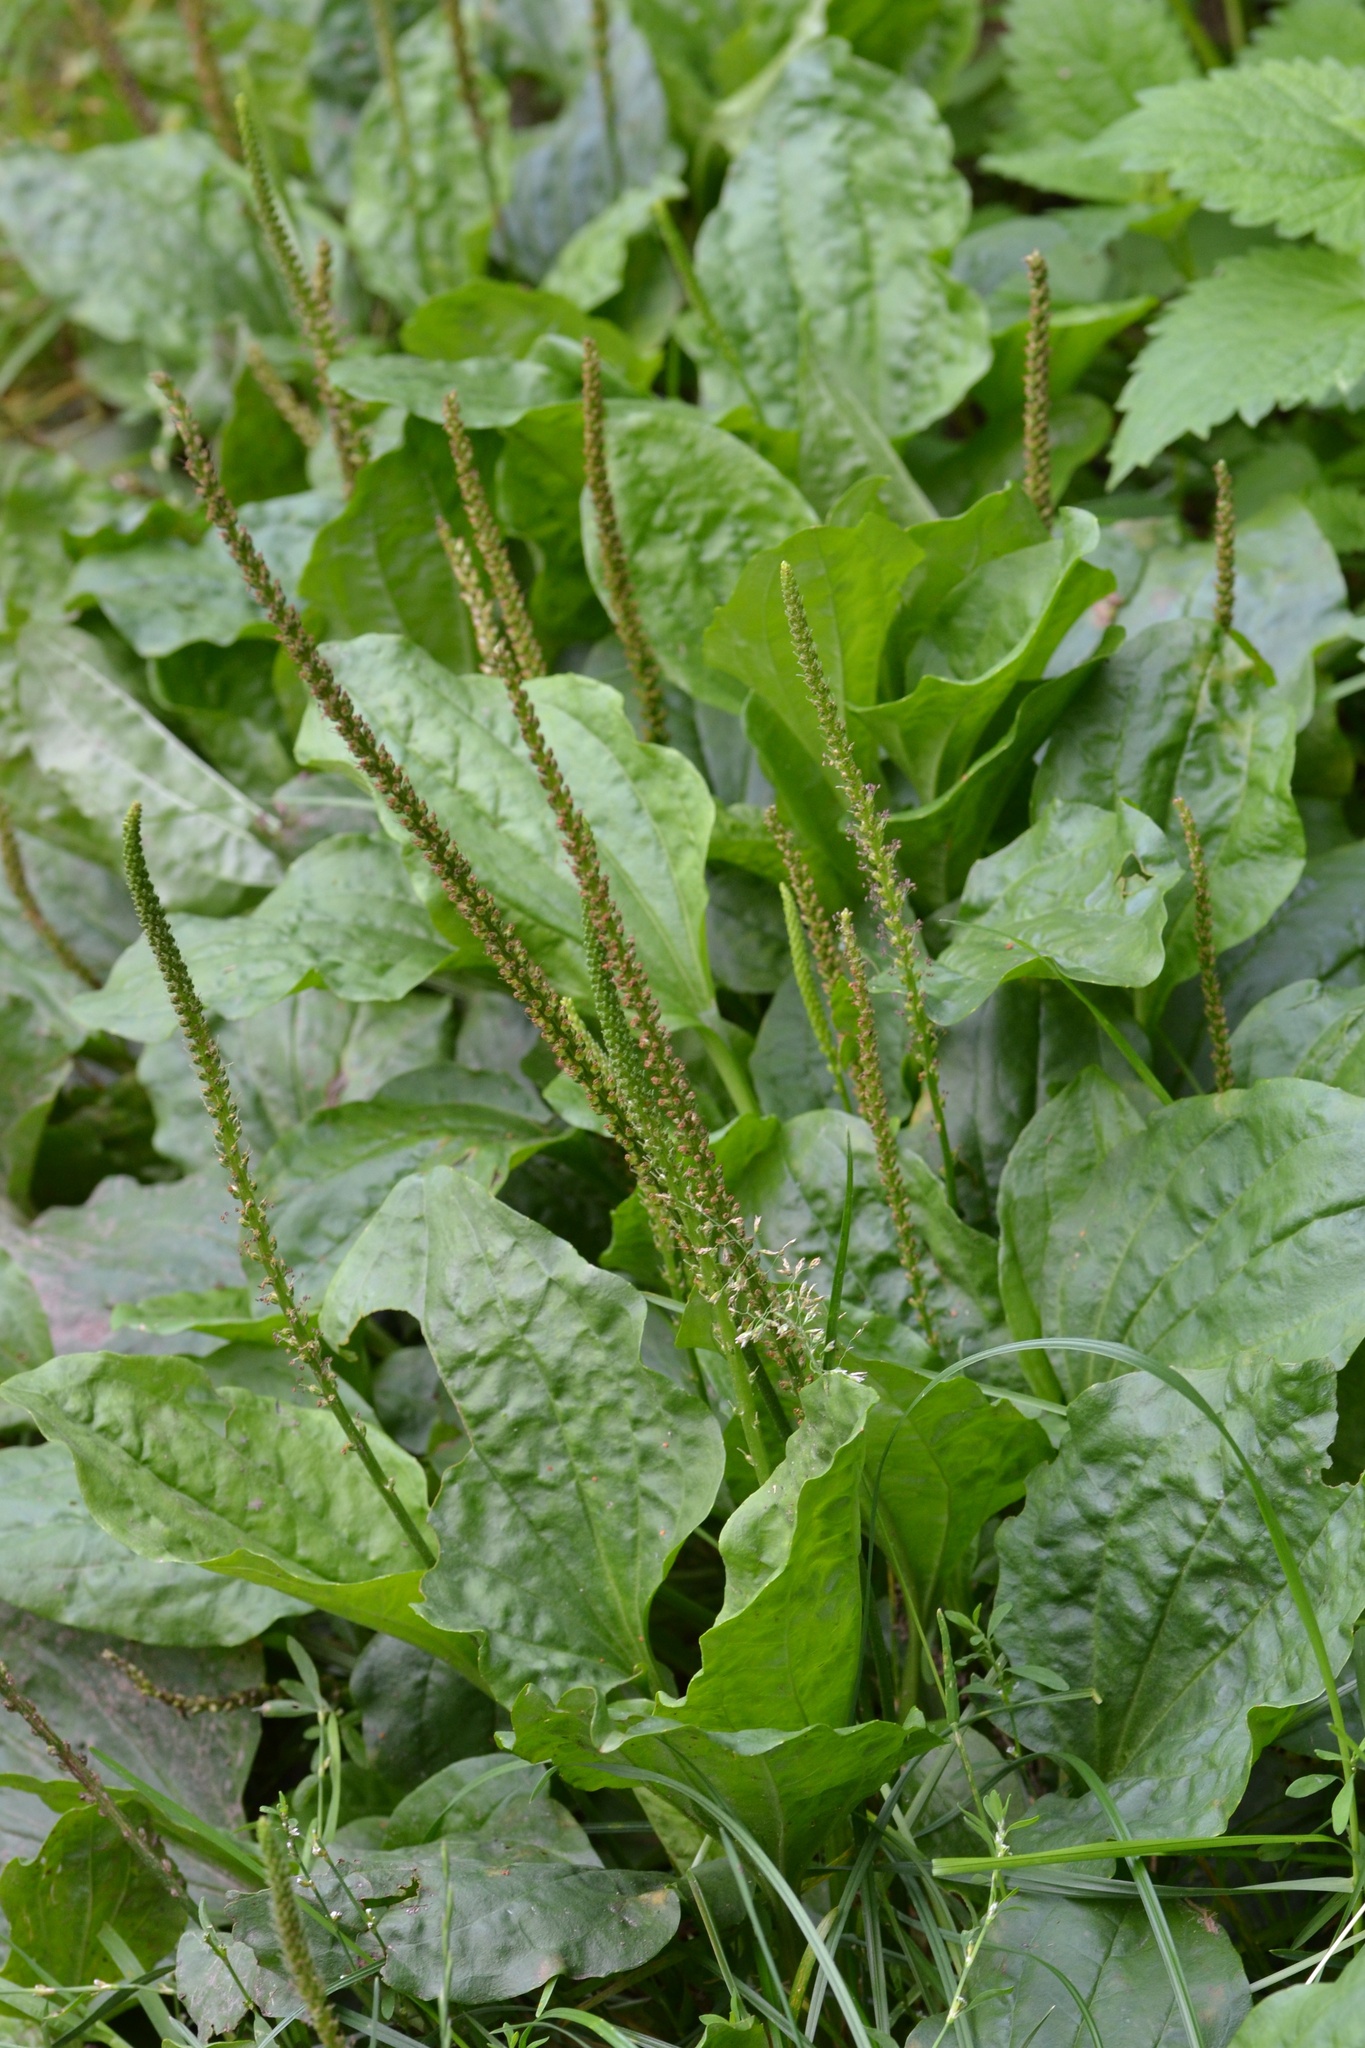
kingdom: Plantae
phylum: Tracheophyta
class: Magnoliopsida
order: Lamiales
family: Plantaginaceae
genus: Plantago
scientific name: Plantago major
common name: Common plantain
